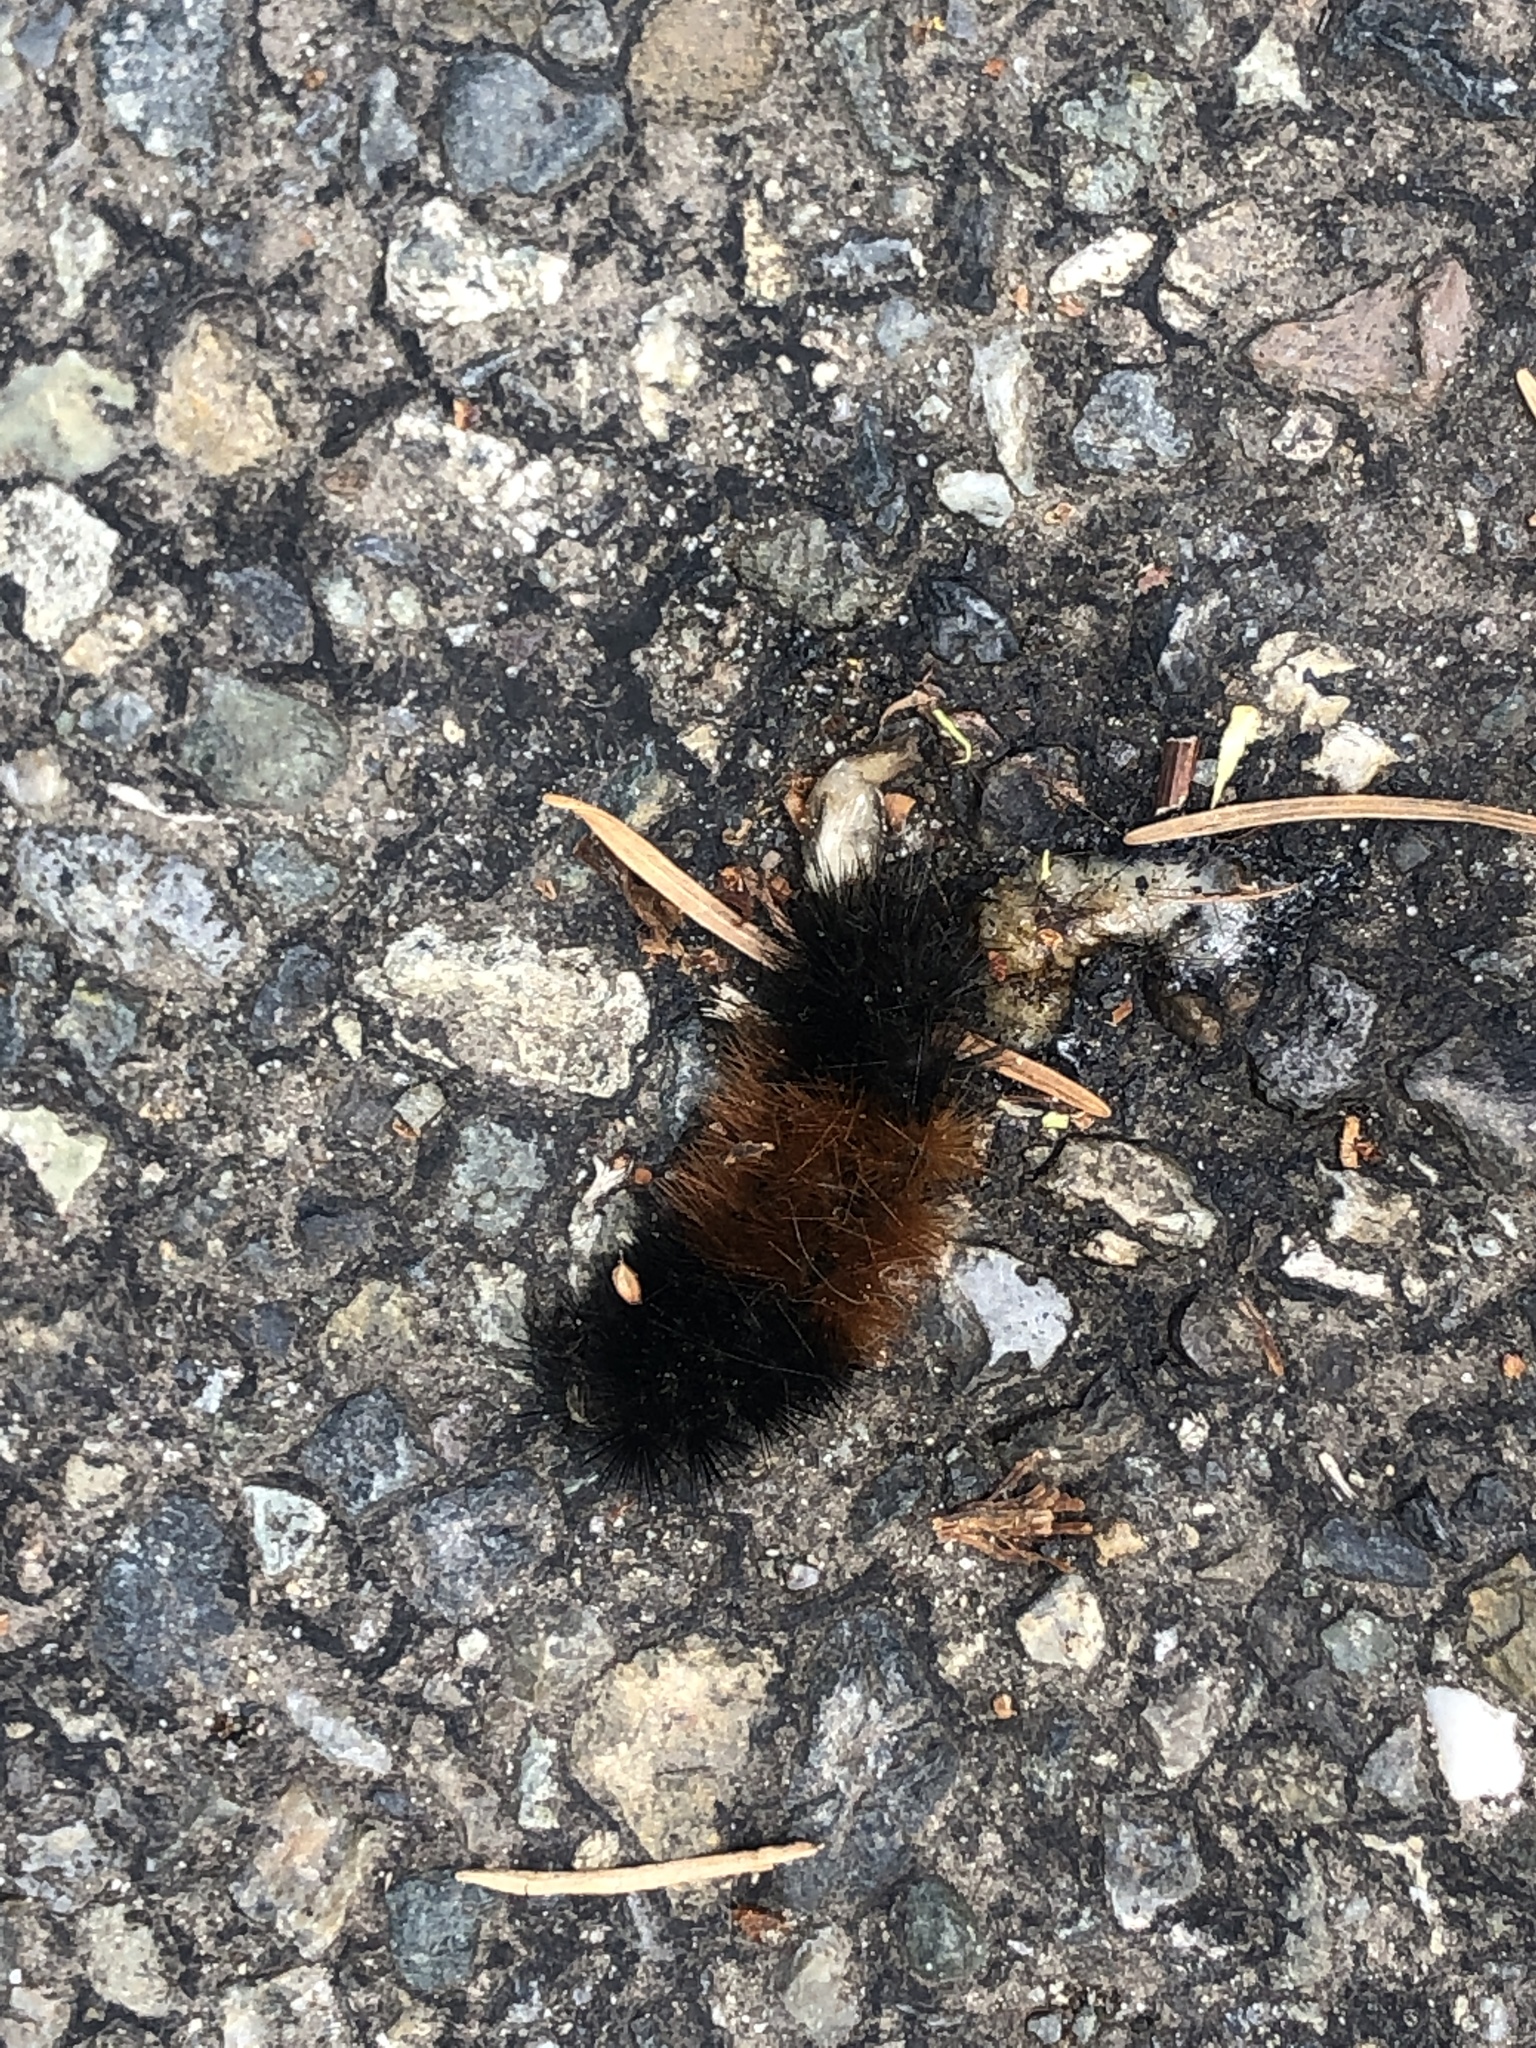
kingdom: Animalia
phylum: Arthropoda
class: Insecta
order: Lepidoptera
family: Erebidae
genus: Pyrrharctia
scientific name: Pyrrharctia isabella
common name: Isabella tiger moth
